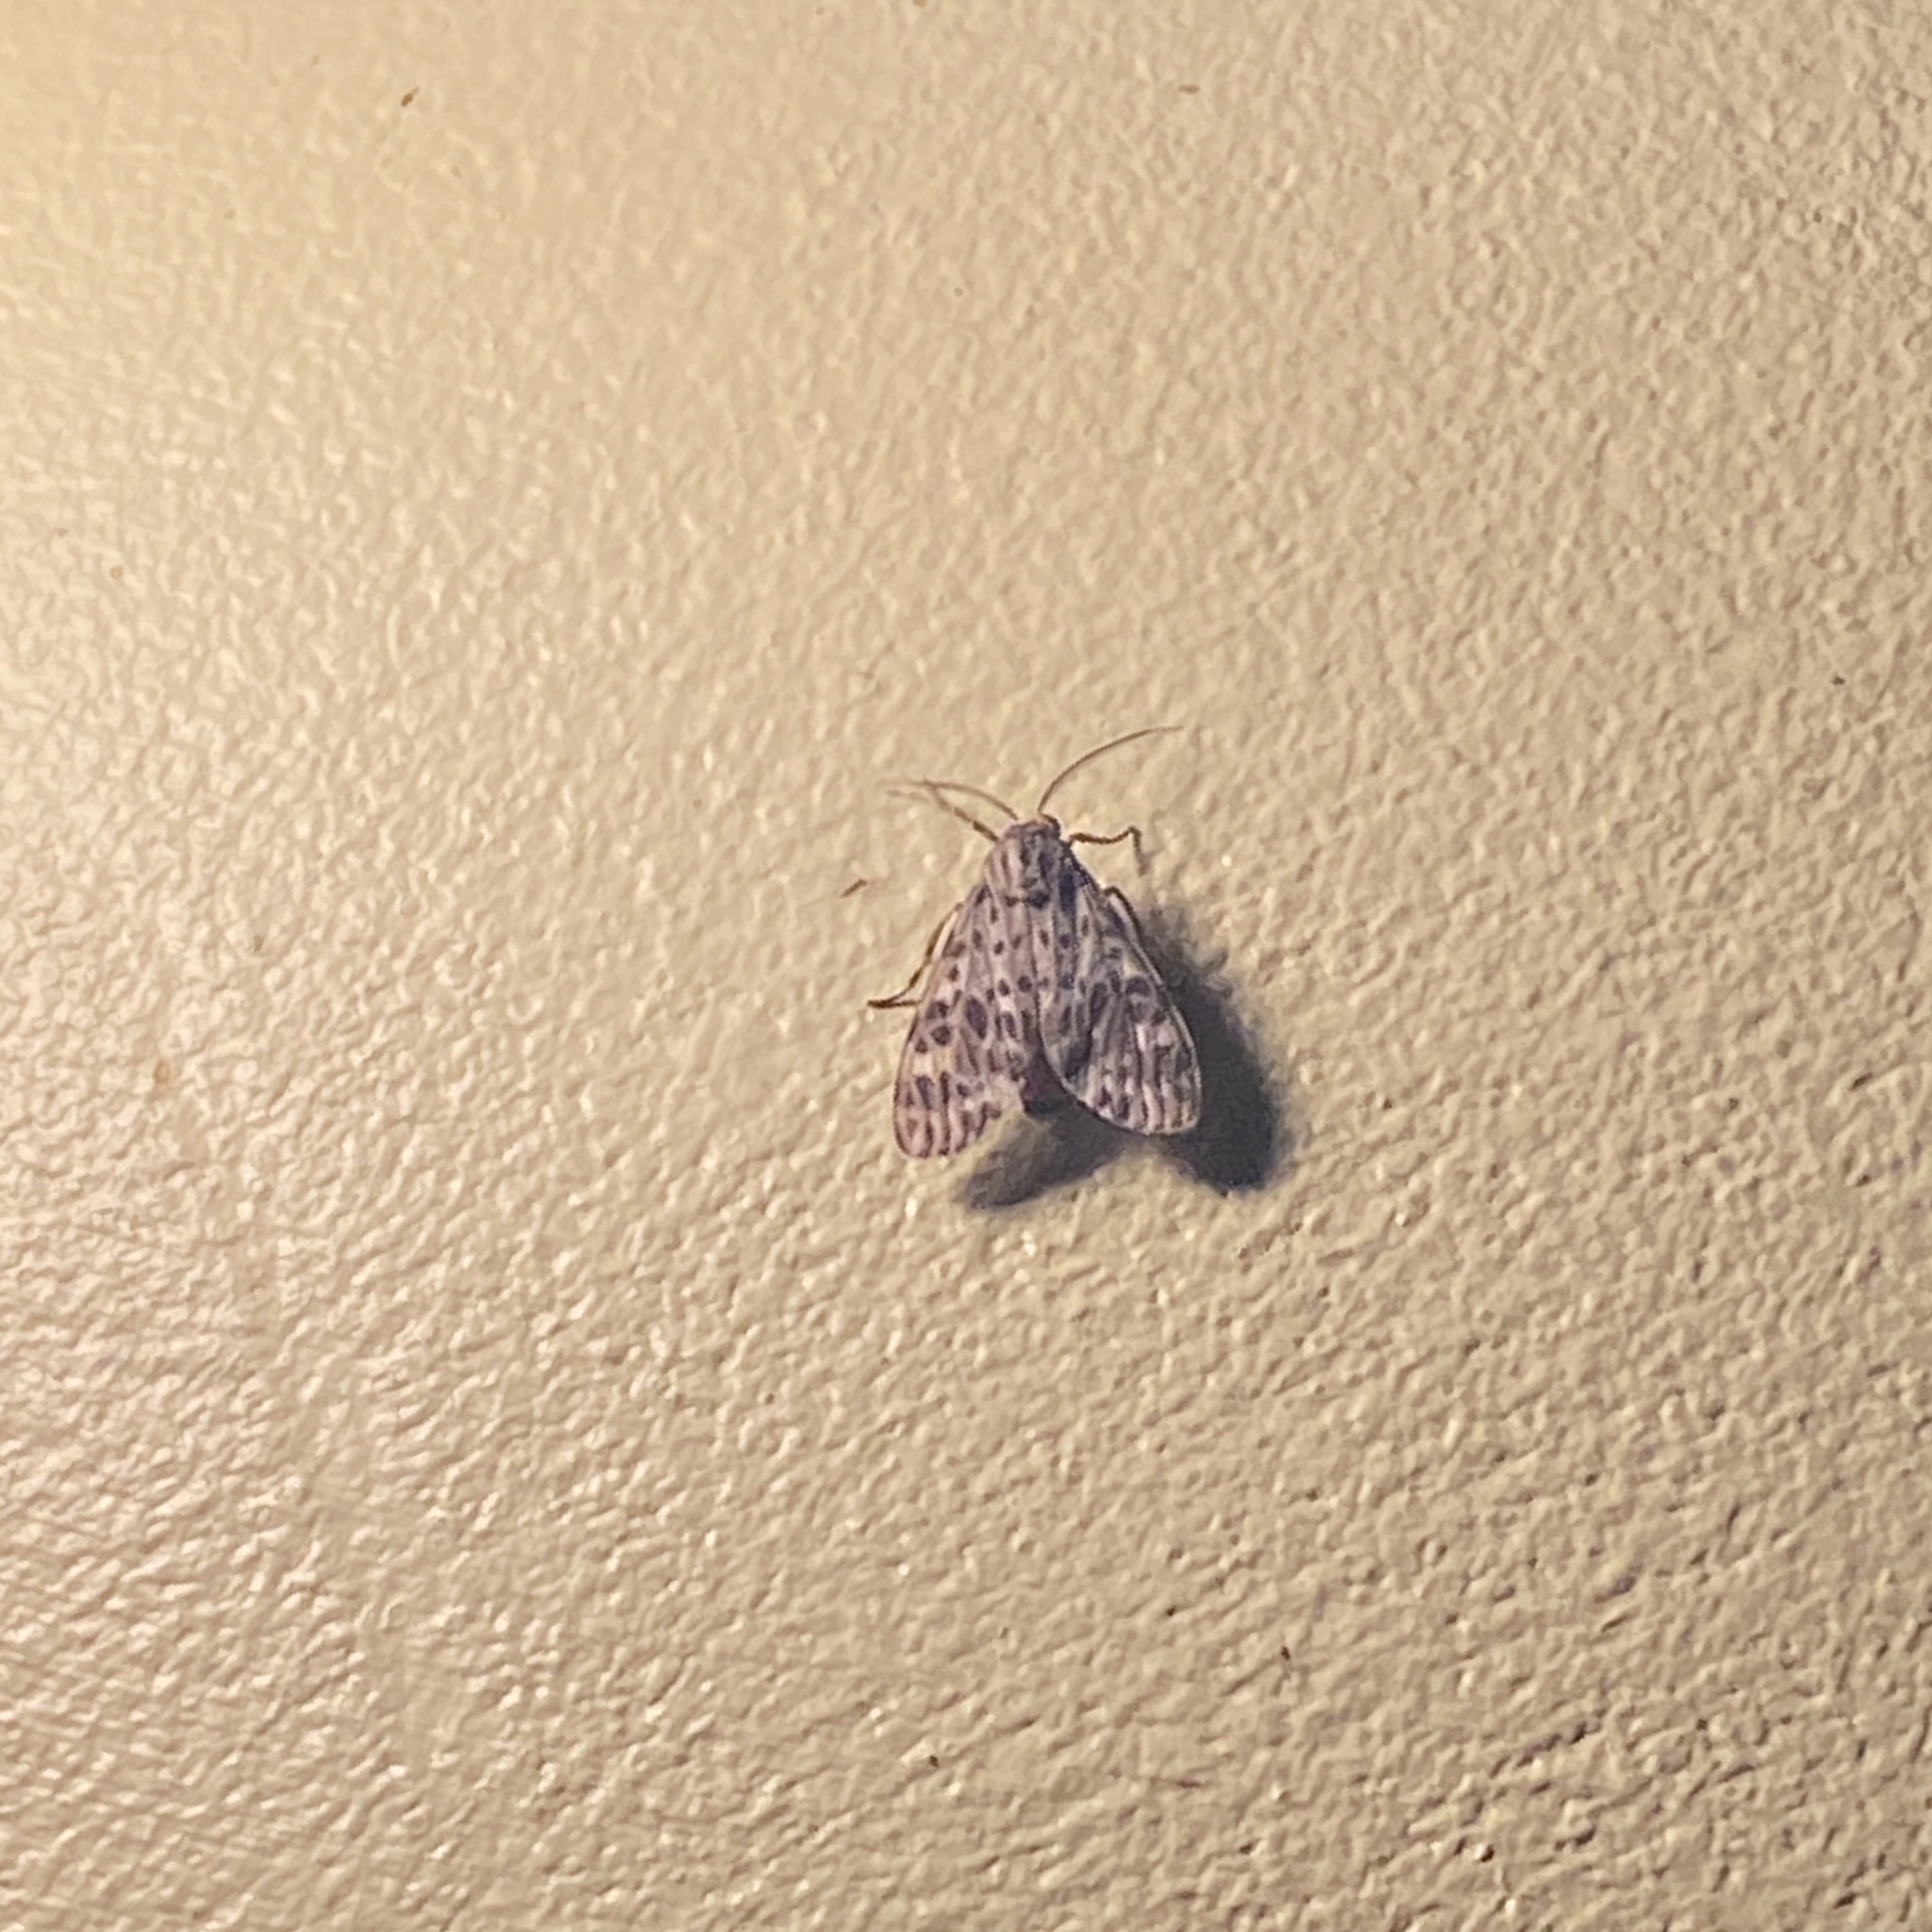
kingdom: Animalia
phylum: Arthropoda
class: Insecta
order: Lepidoptera
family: Erebidae
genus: Eucereon
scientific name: Eucereon punctata
